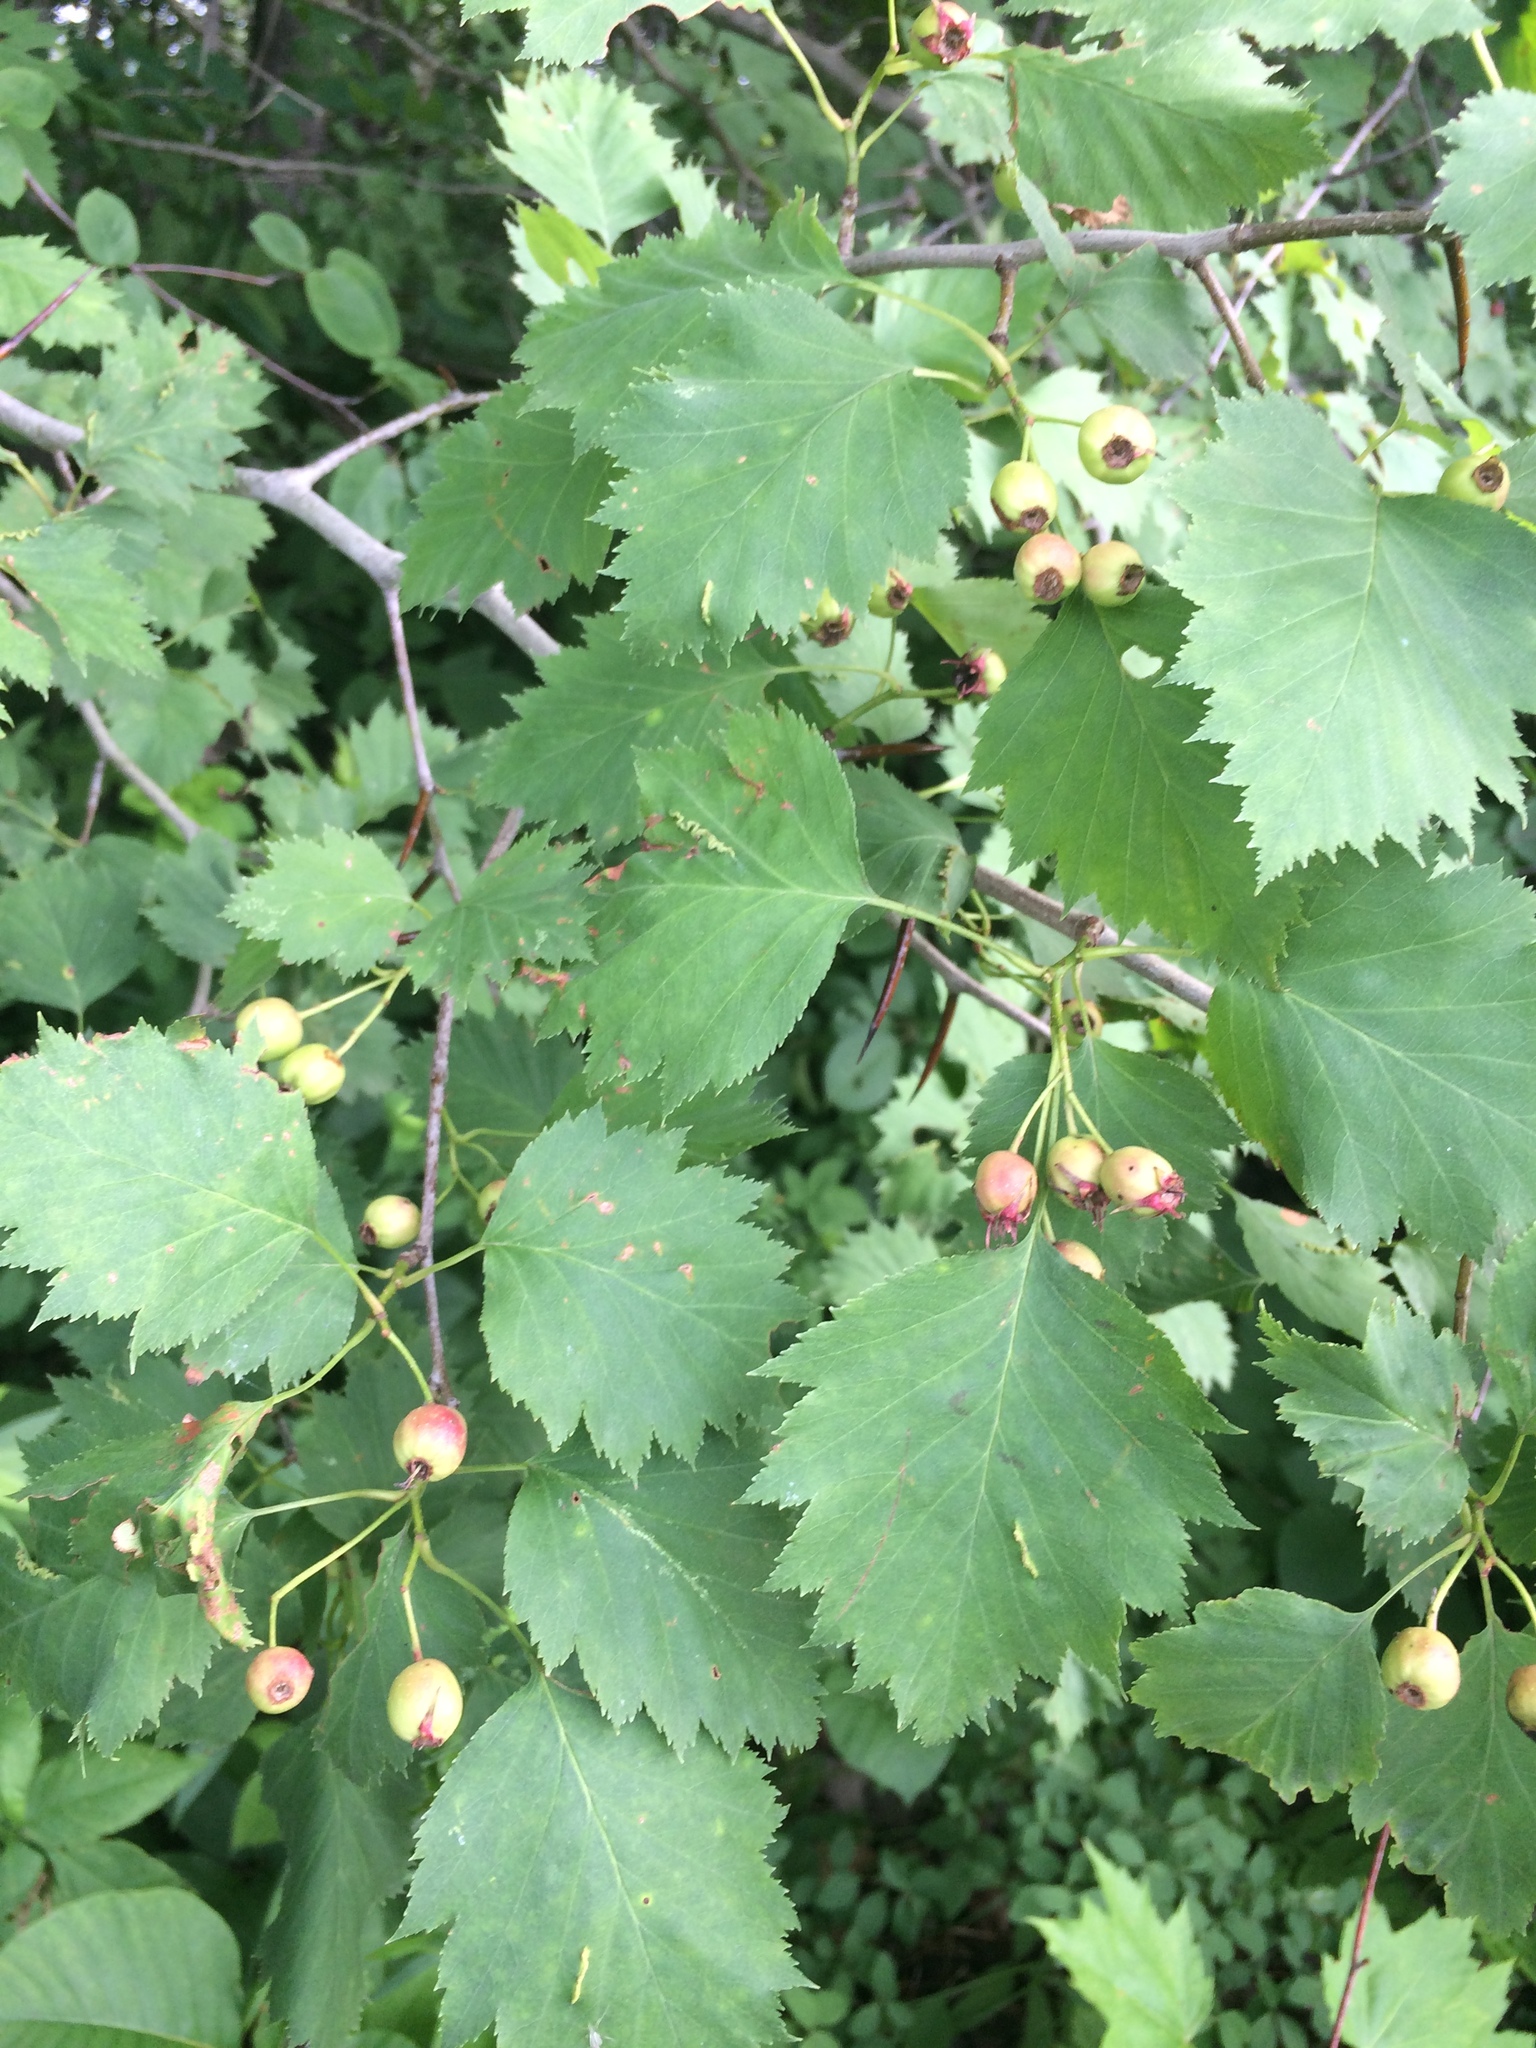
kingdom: Plantae
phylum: Tracheophyta
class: Magnoliopsida
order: Rosales
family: Rosaceae
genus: Crataegus
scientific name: Crataegus flabellata
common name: Bosc's hawthorn
